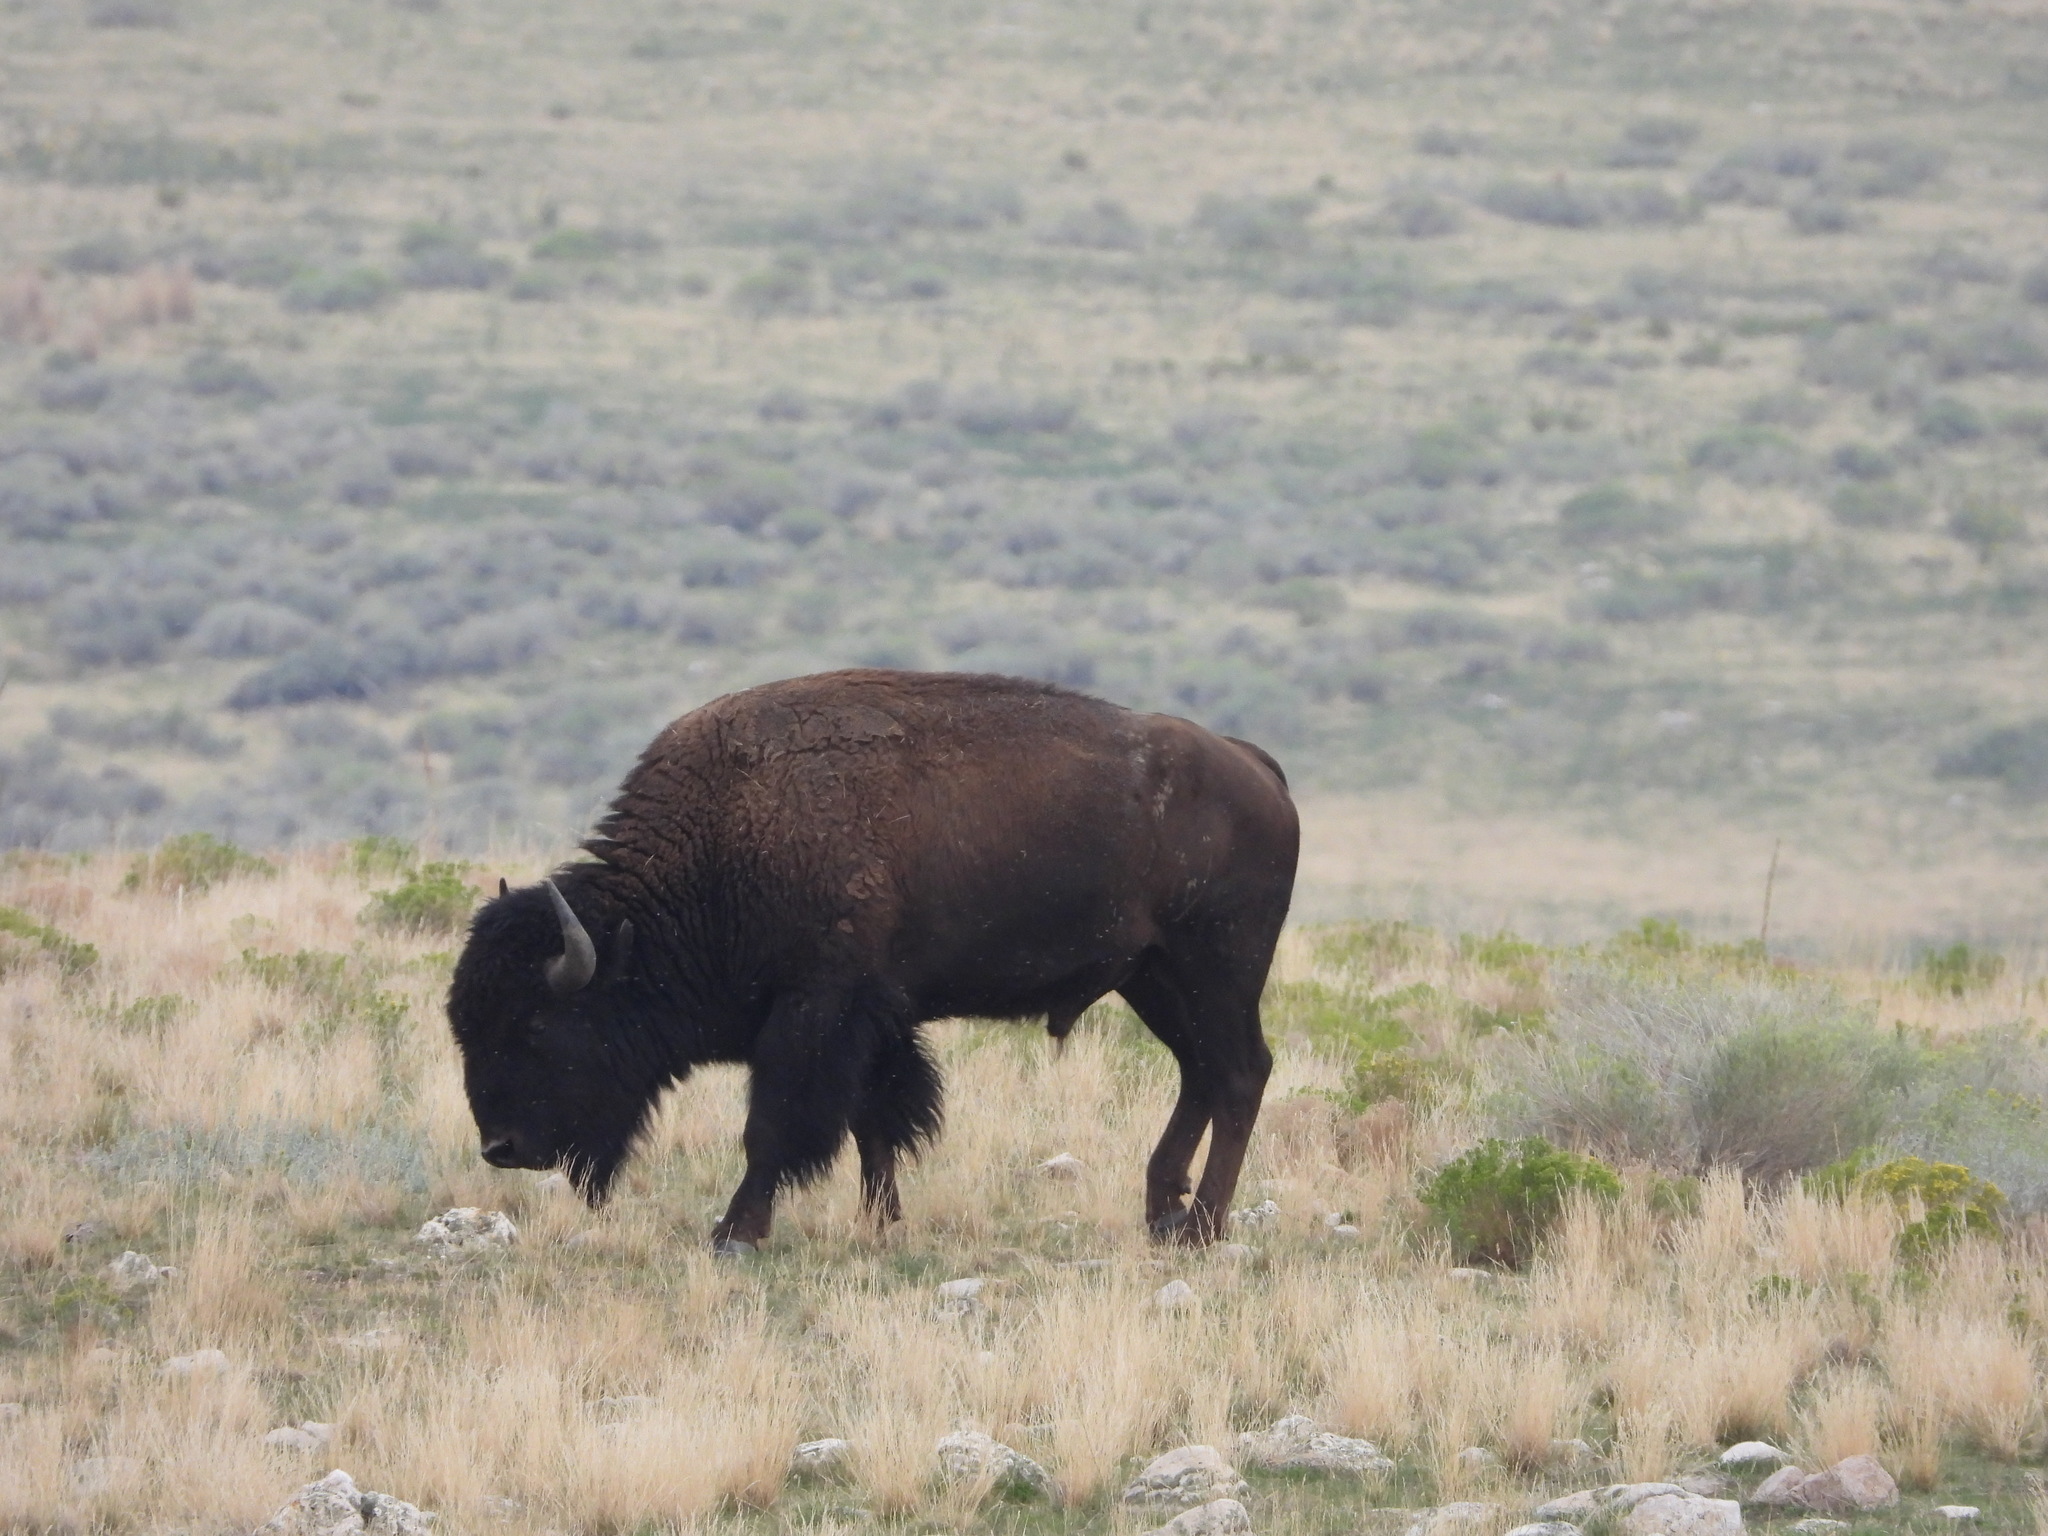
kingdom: Animalia
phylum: Chordata
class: Mammalia
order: Artiodactyla
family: Bovidae
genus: Bison
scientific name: Bison bison
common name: American bison
